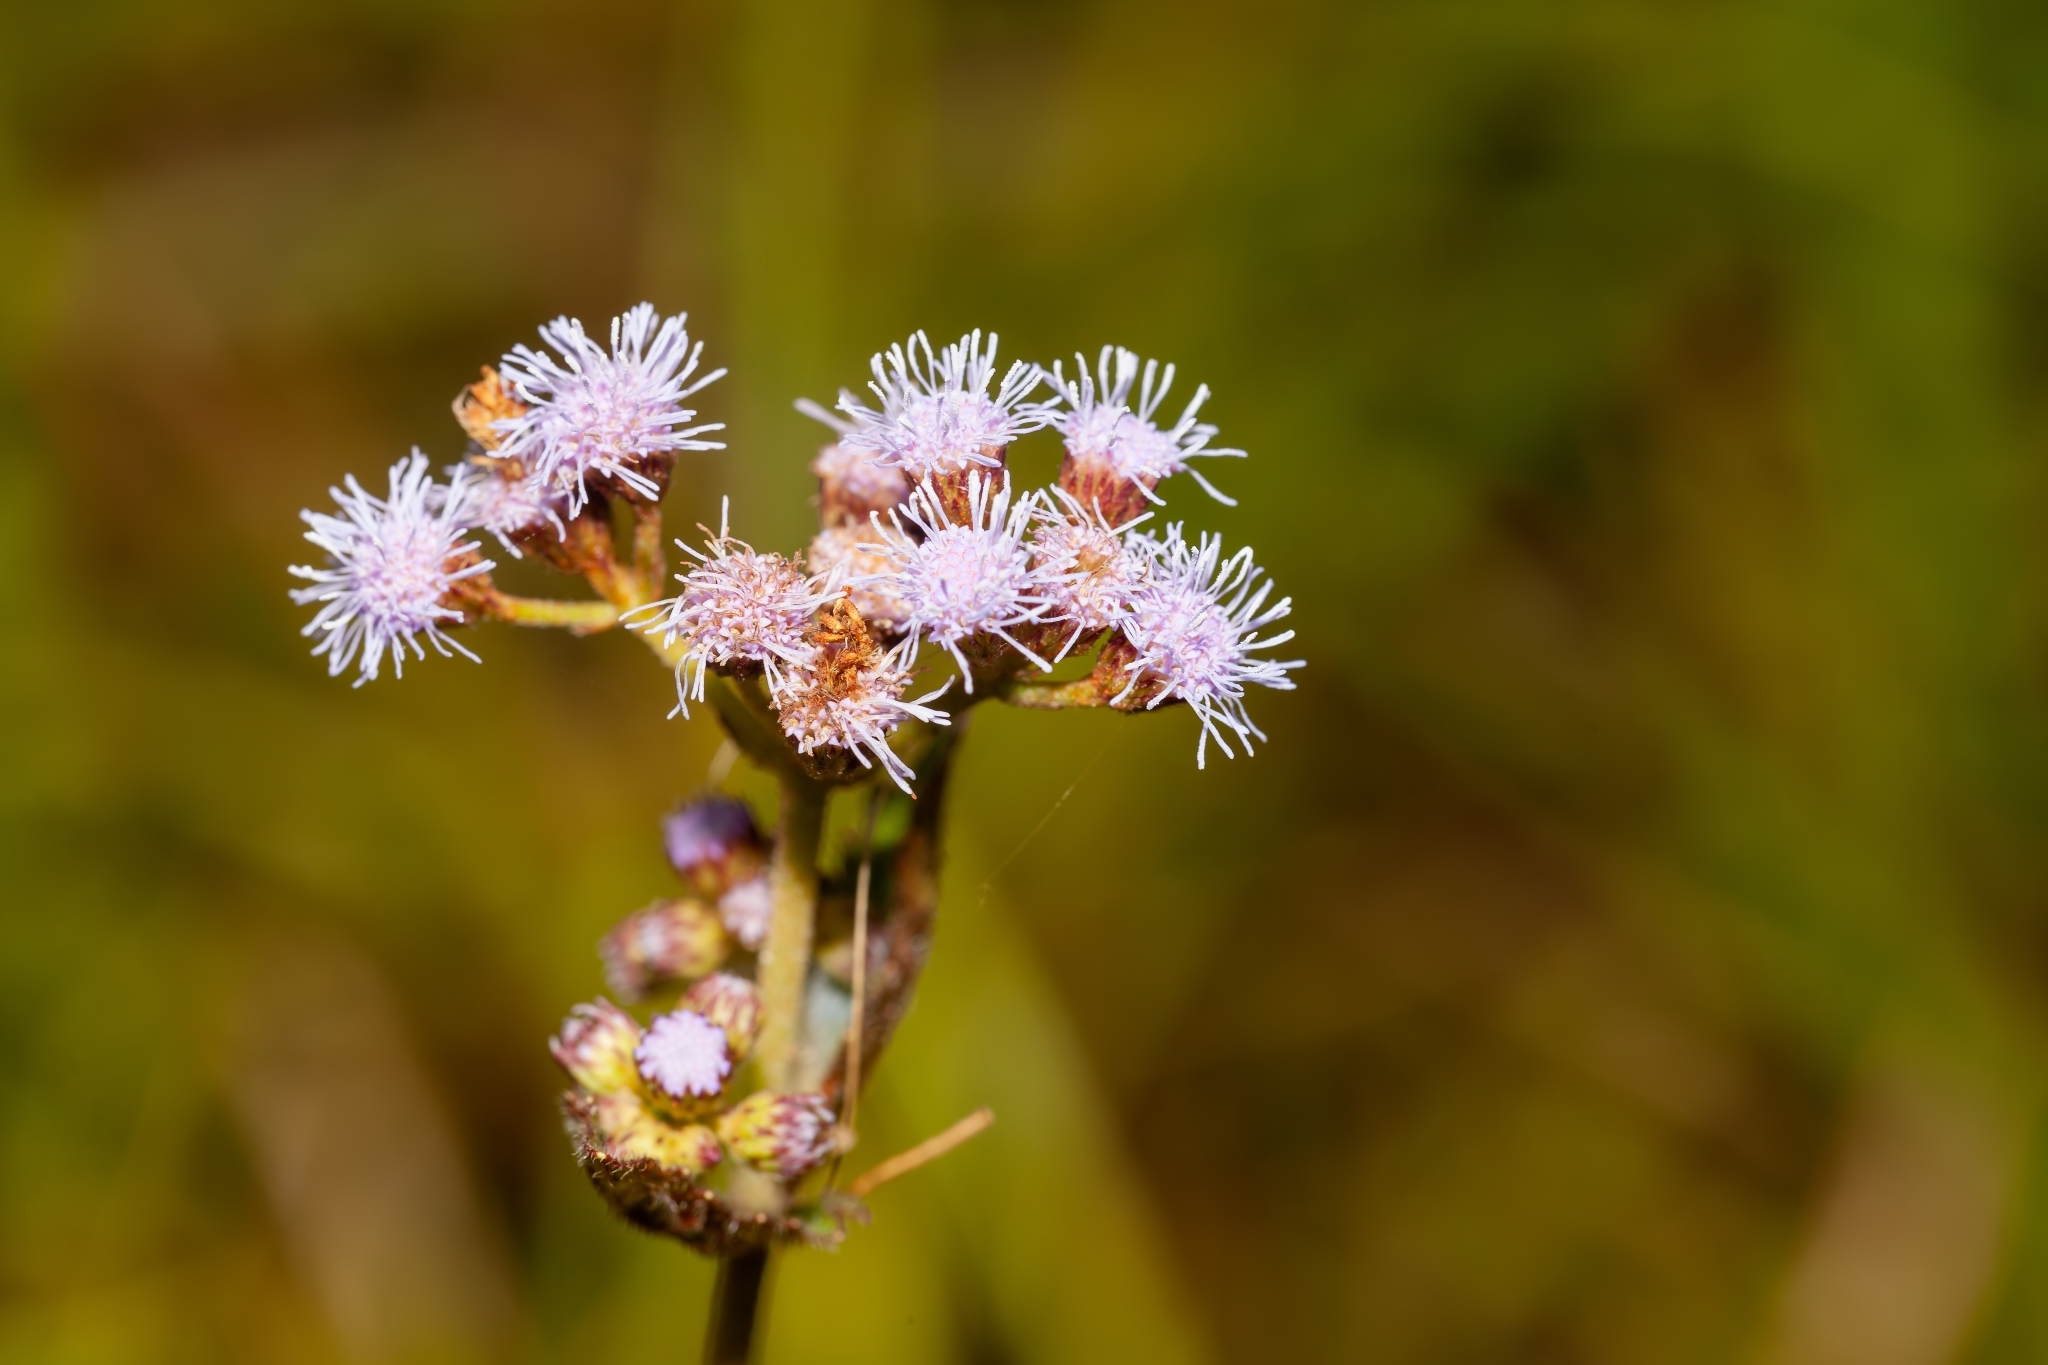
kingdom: Plantae
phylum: Tracheophyta
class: Magnoliopsida
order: Asterales
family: Asteraceae
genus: Conoclinium
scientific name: Conoclinium coelestinum
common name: Blue mistflower
